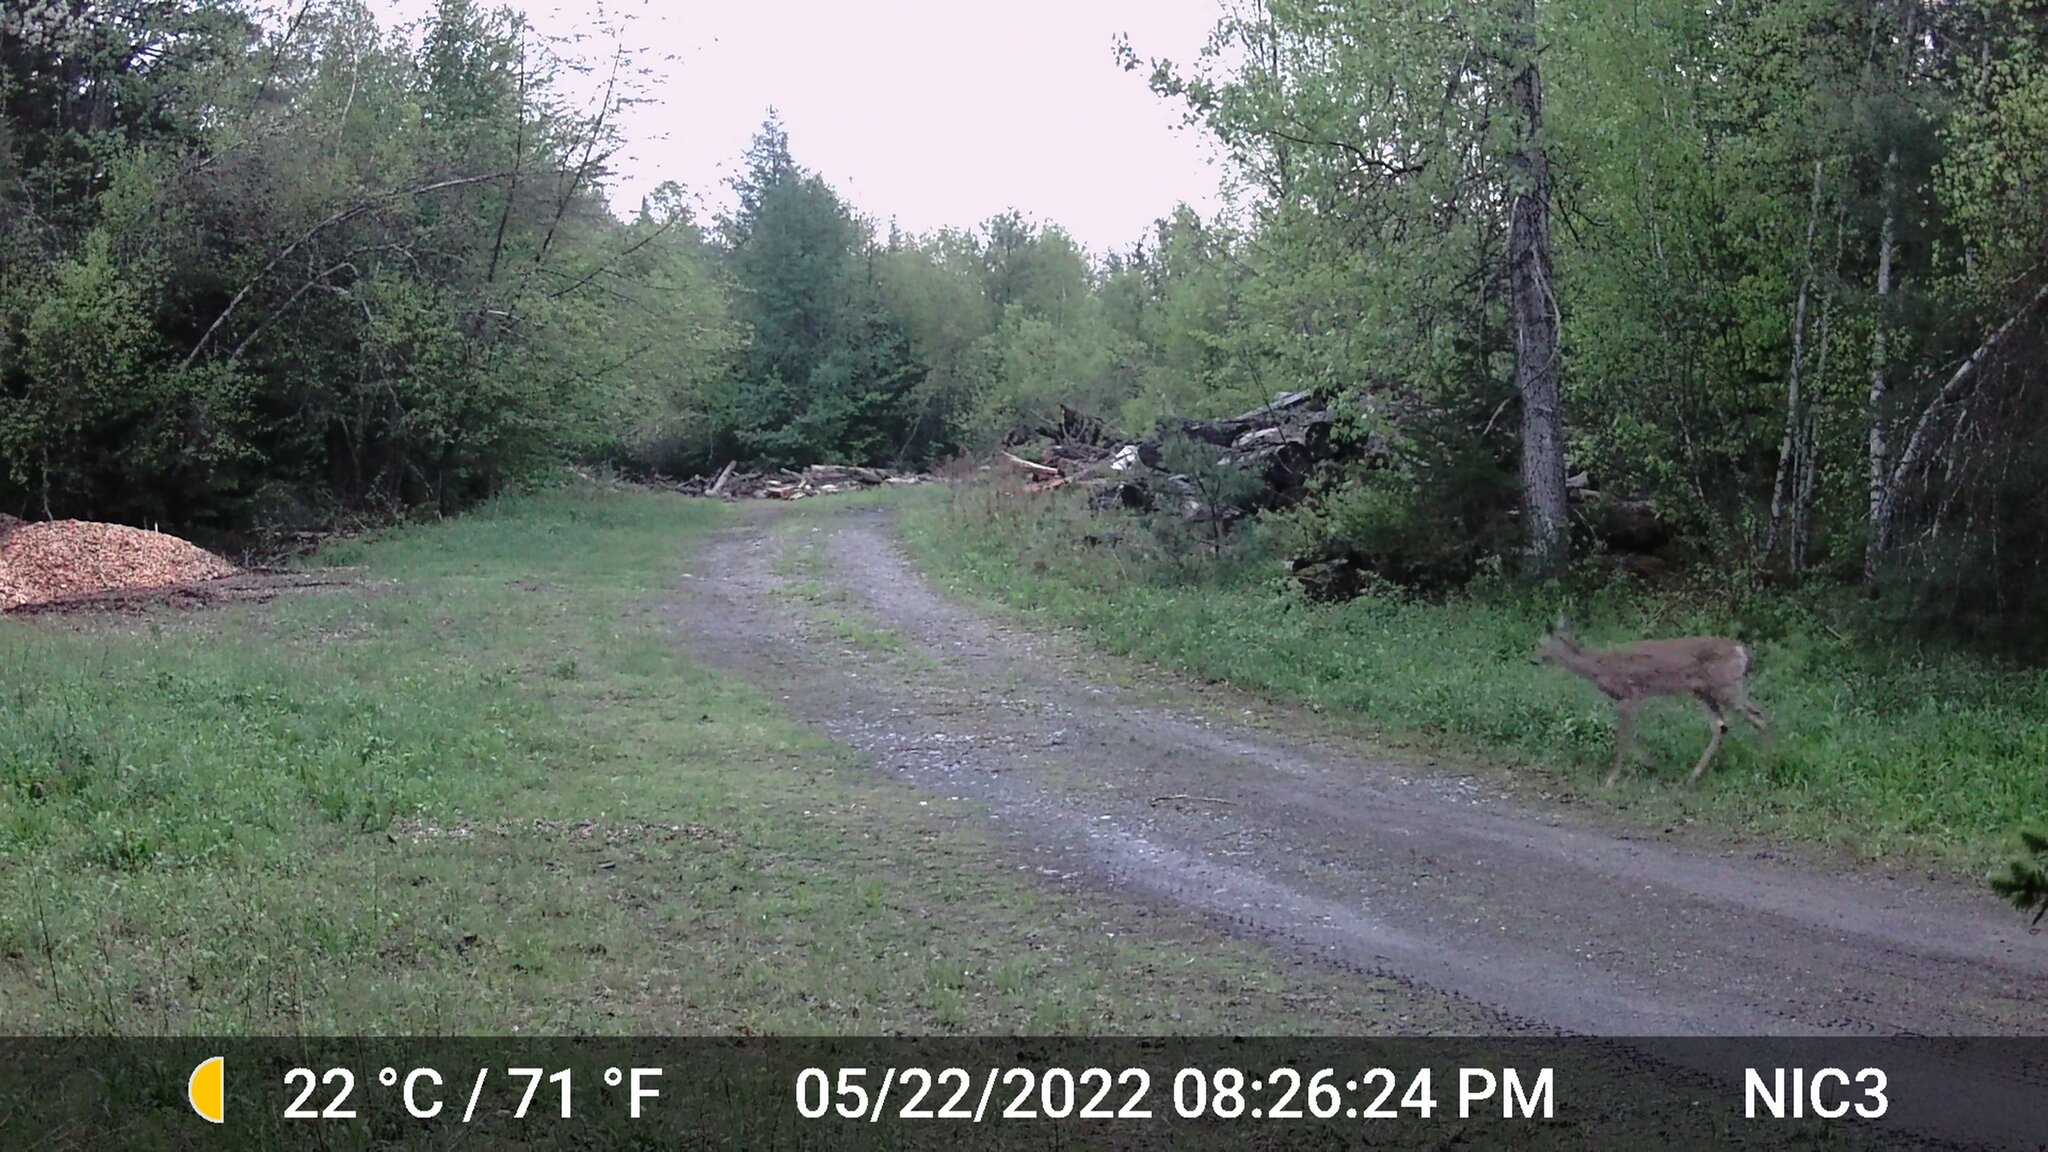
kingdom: Animalia
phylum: Chordata
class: Mammalia
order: Artiodactyla
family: Cervidae
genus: Odocoileus
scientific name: Odocoileus virginianus
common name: White-tailed deer
